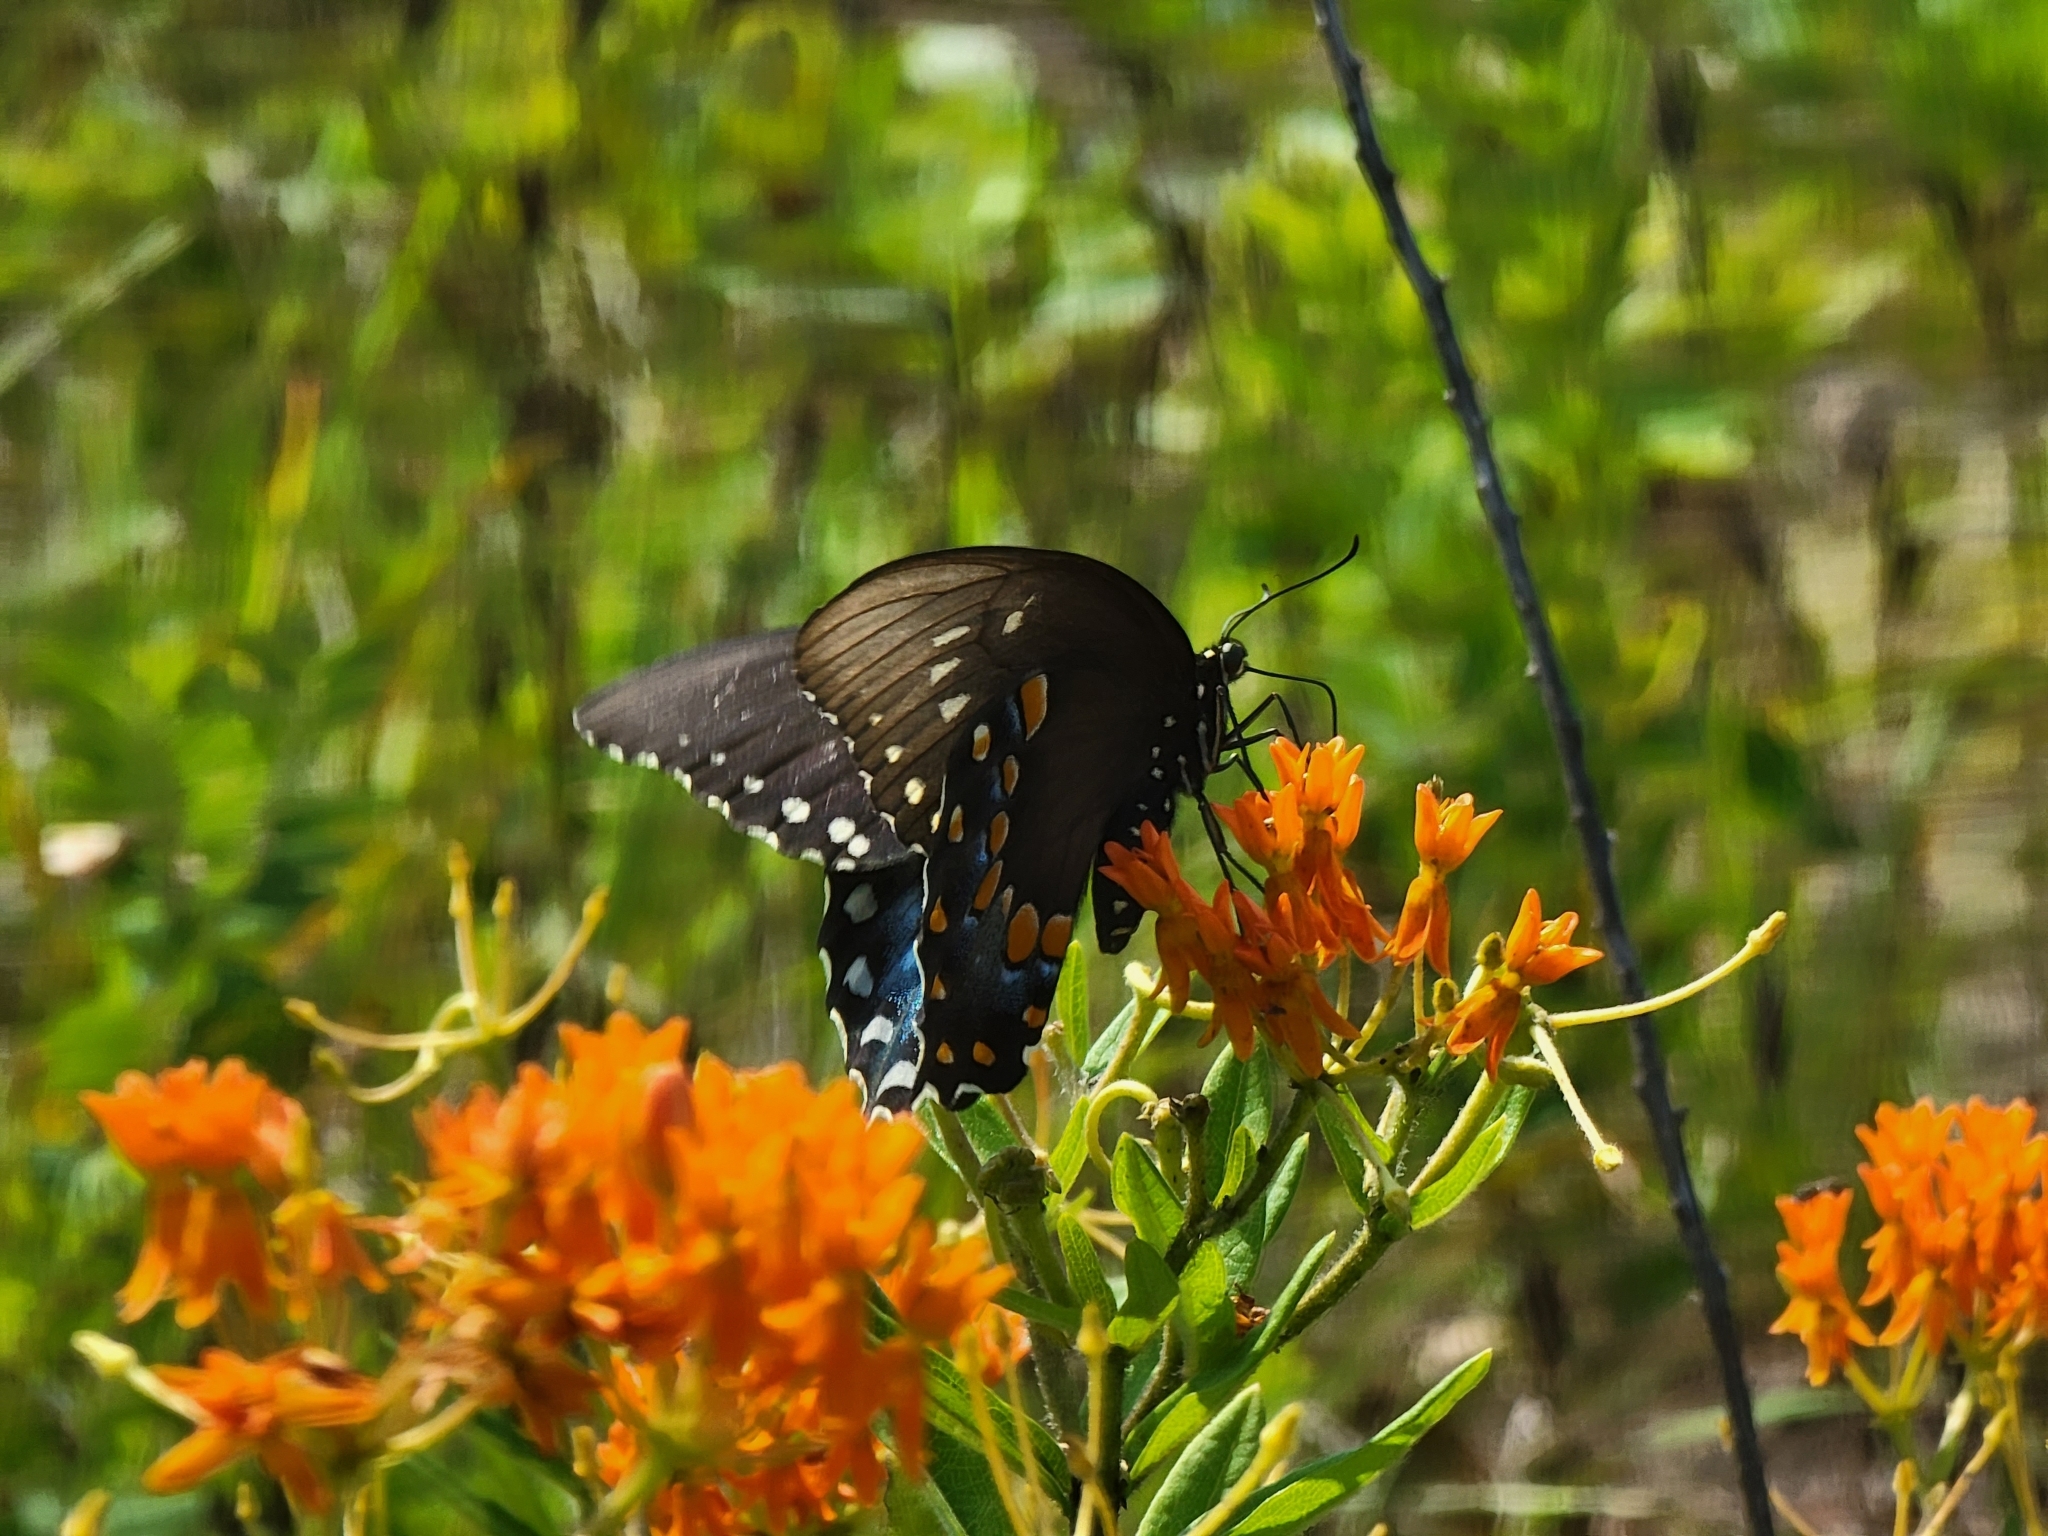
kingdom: Animalia
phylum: Arthropoda
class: Insecta
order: Lepidoptera
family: Papilionidae
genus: Papilio
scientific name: Papilio troilus
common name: Spicebush swallowtail
